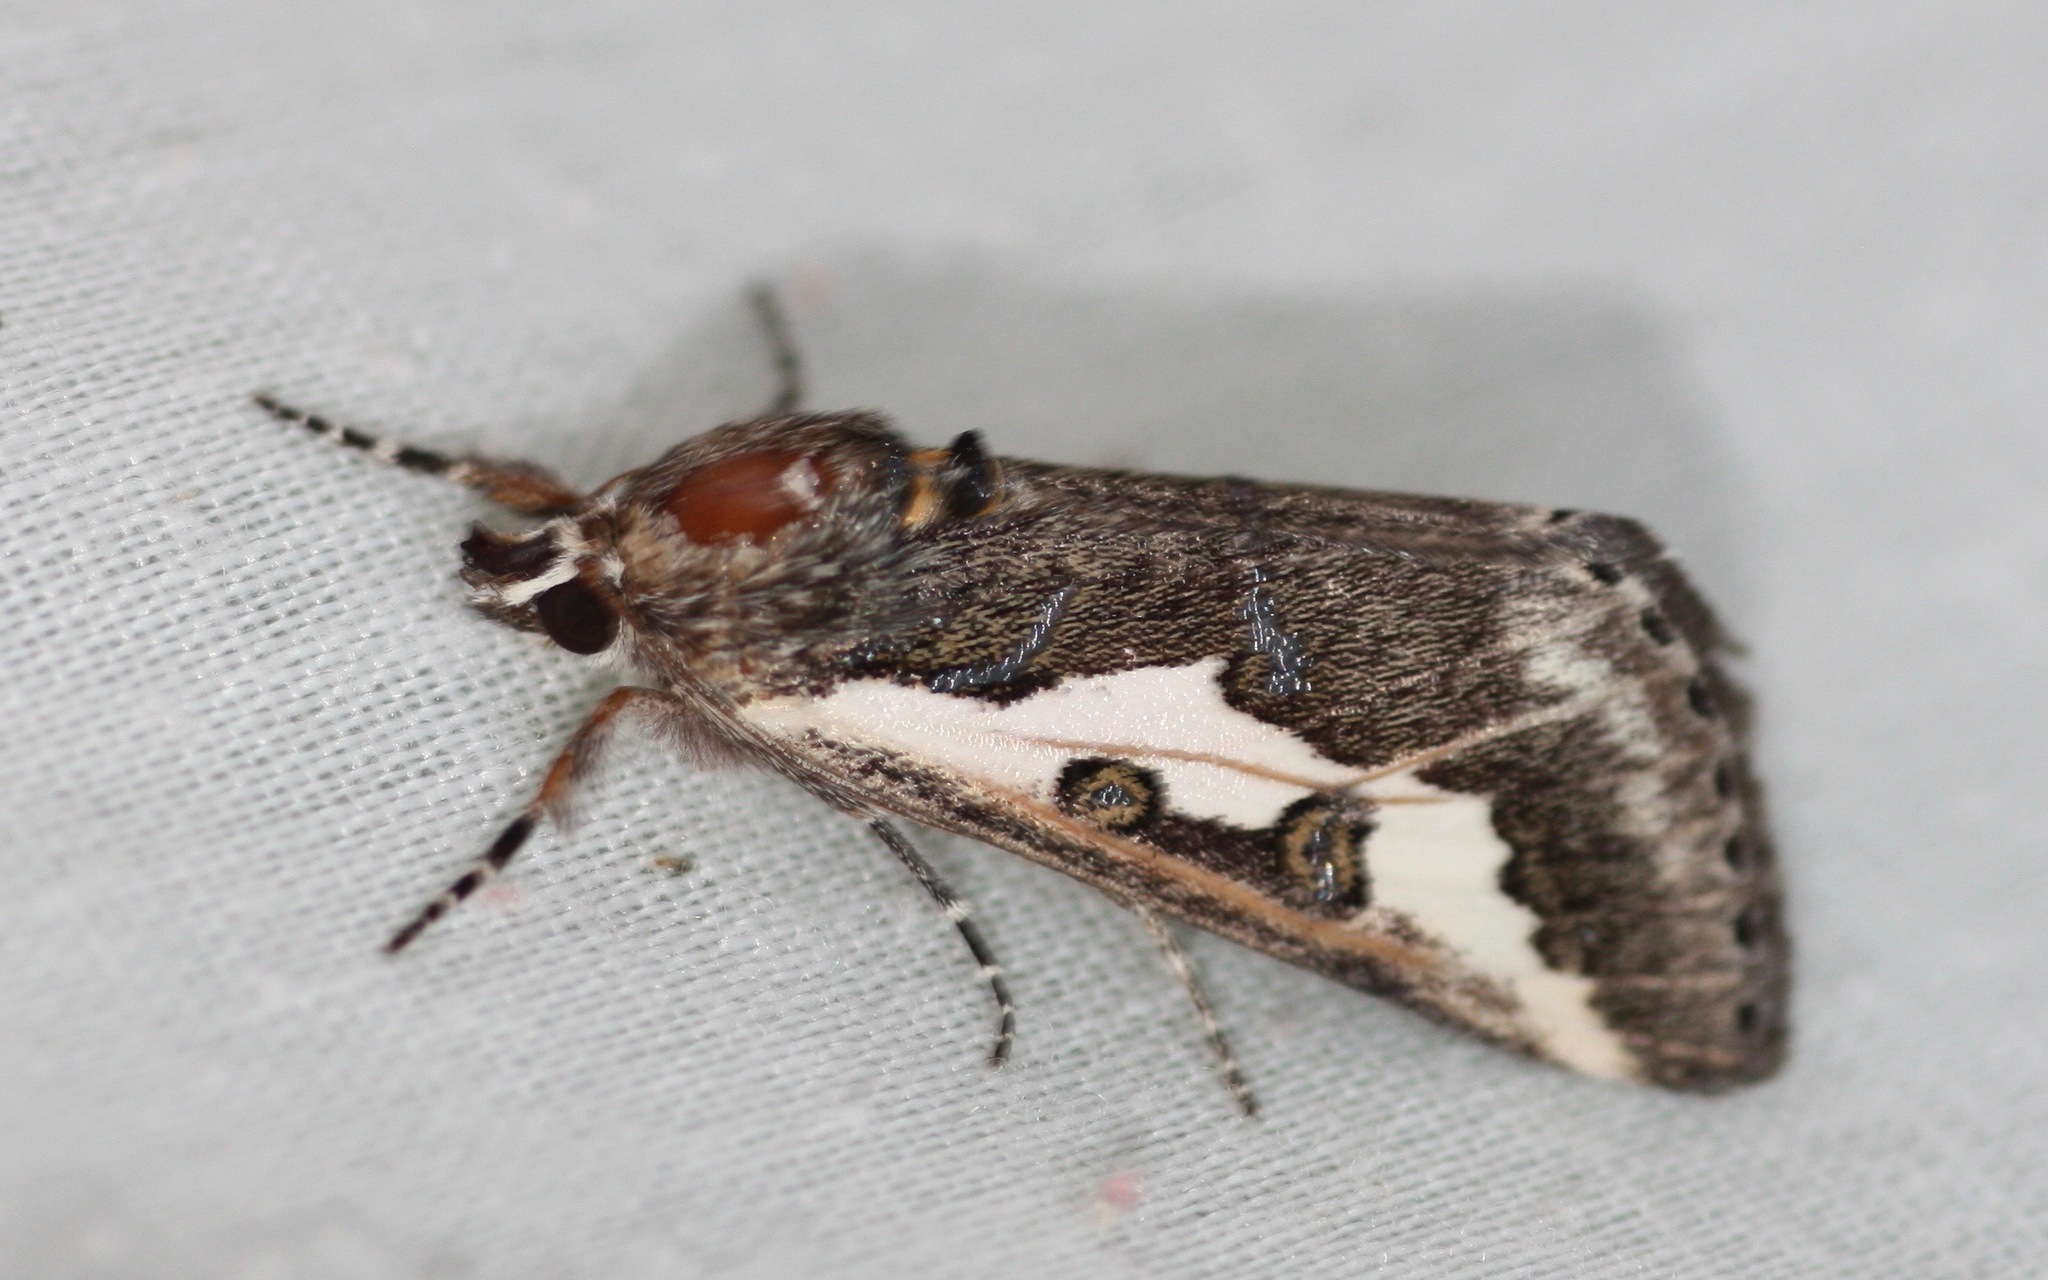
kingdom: Animalia
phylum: Arthropoda
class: Insecta
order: Lepidoptera
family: Noctuidae
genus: Euscirrhopterus
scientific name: Euscirrhopterus gloveri
